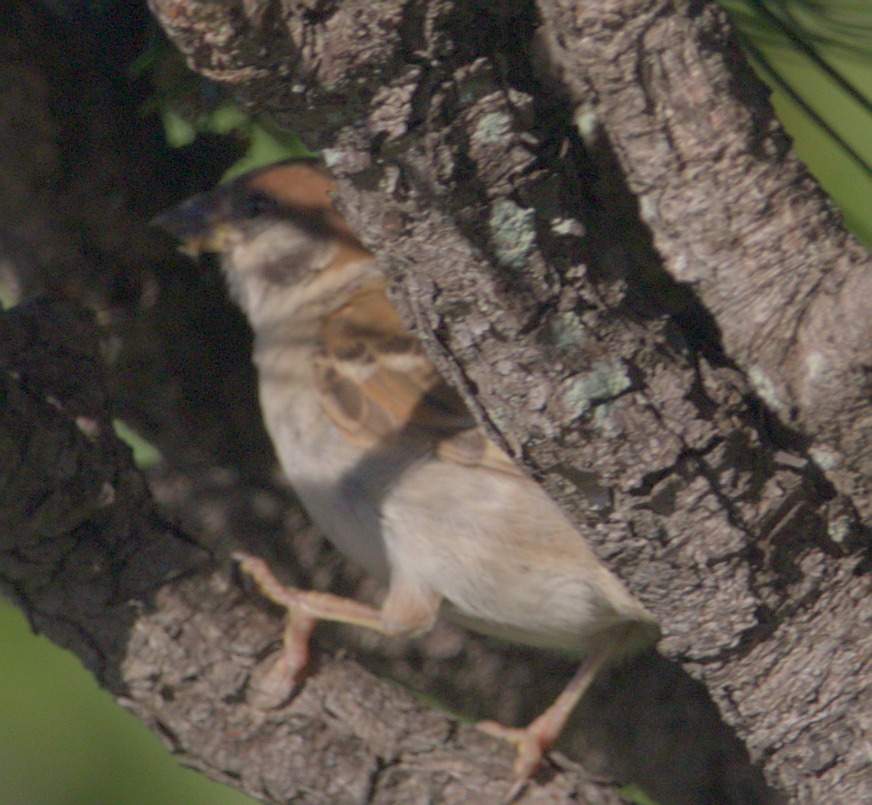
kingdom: Animalia
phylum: Chordata
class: Aves
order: Passeriformes
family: Passeridae
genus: Passer
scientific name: Passer montanus
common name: Eurasian tree sparrow
